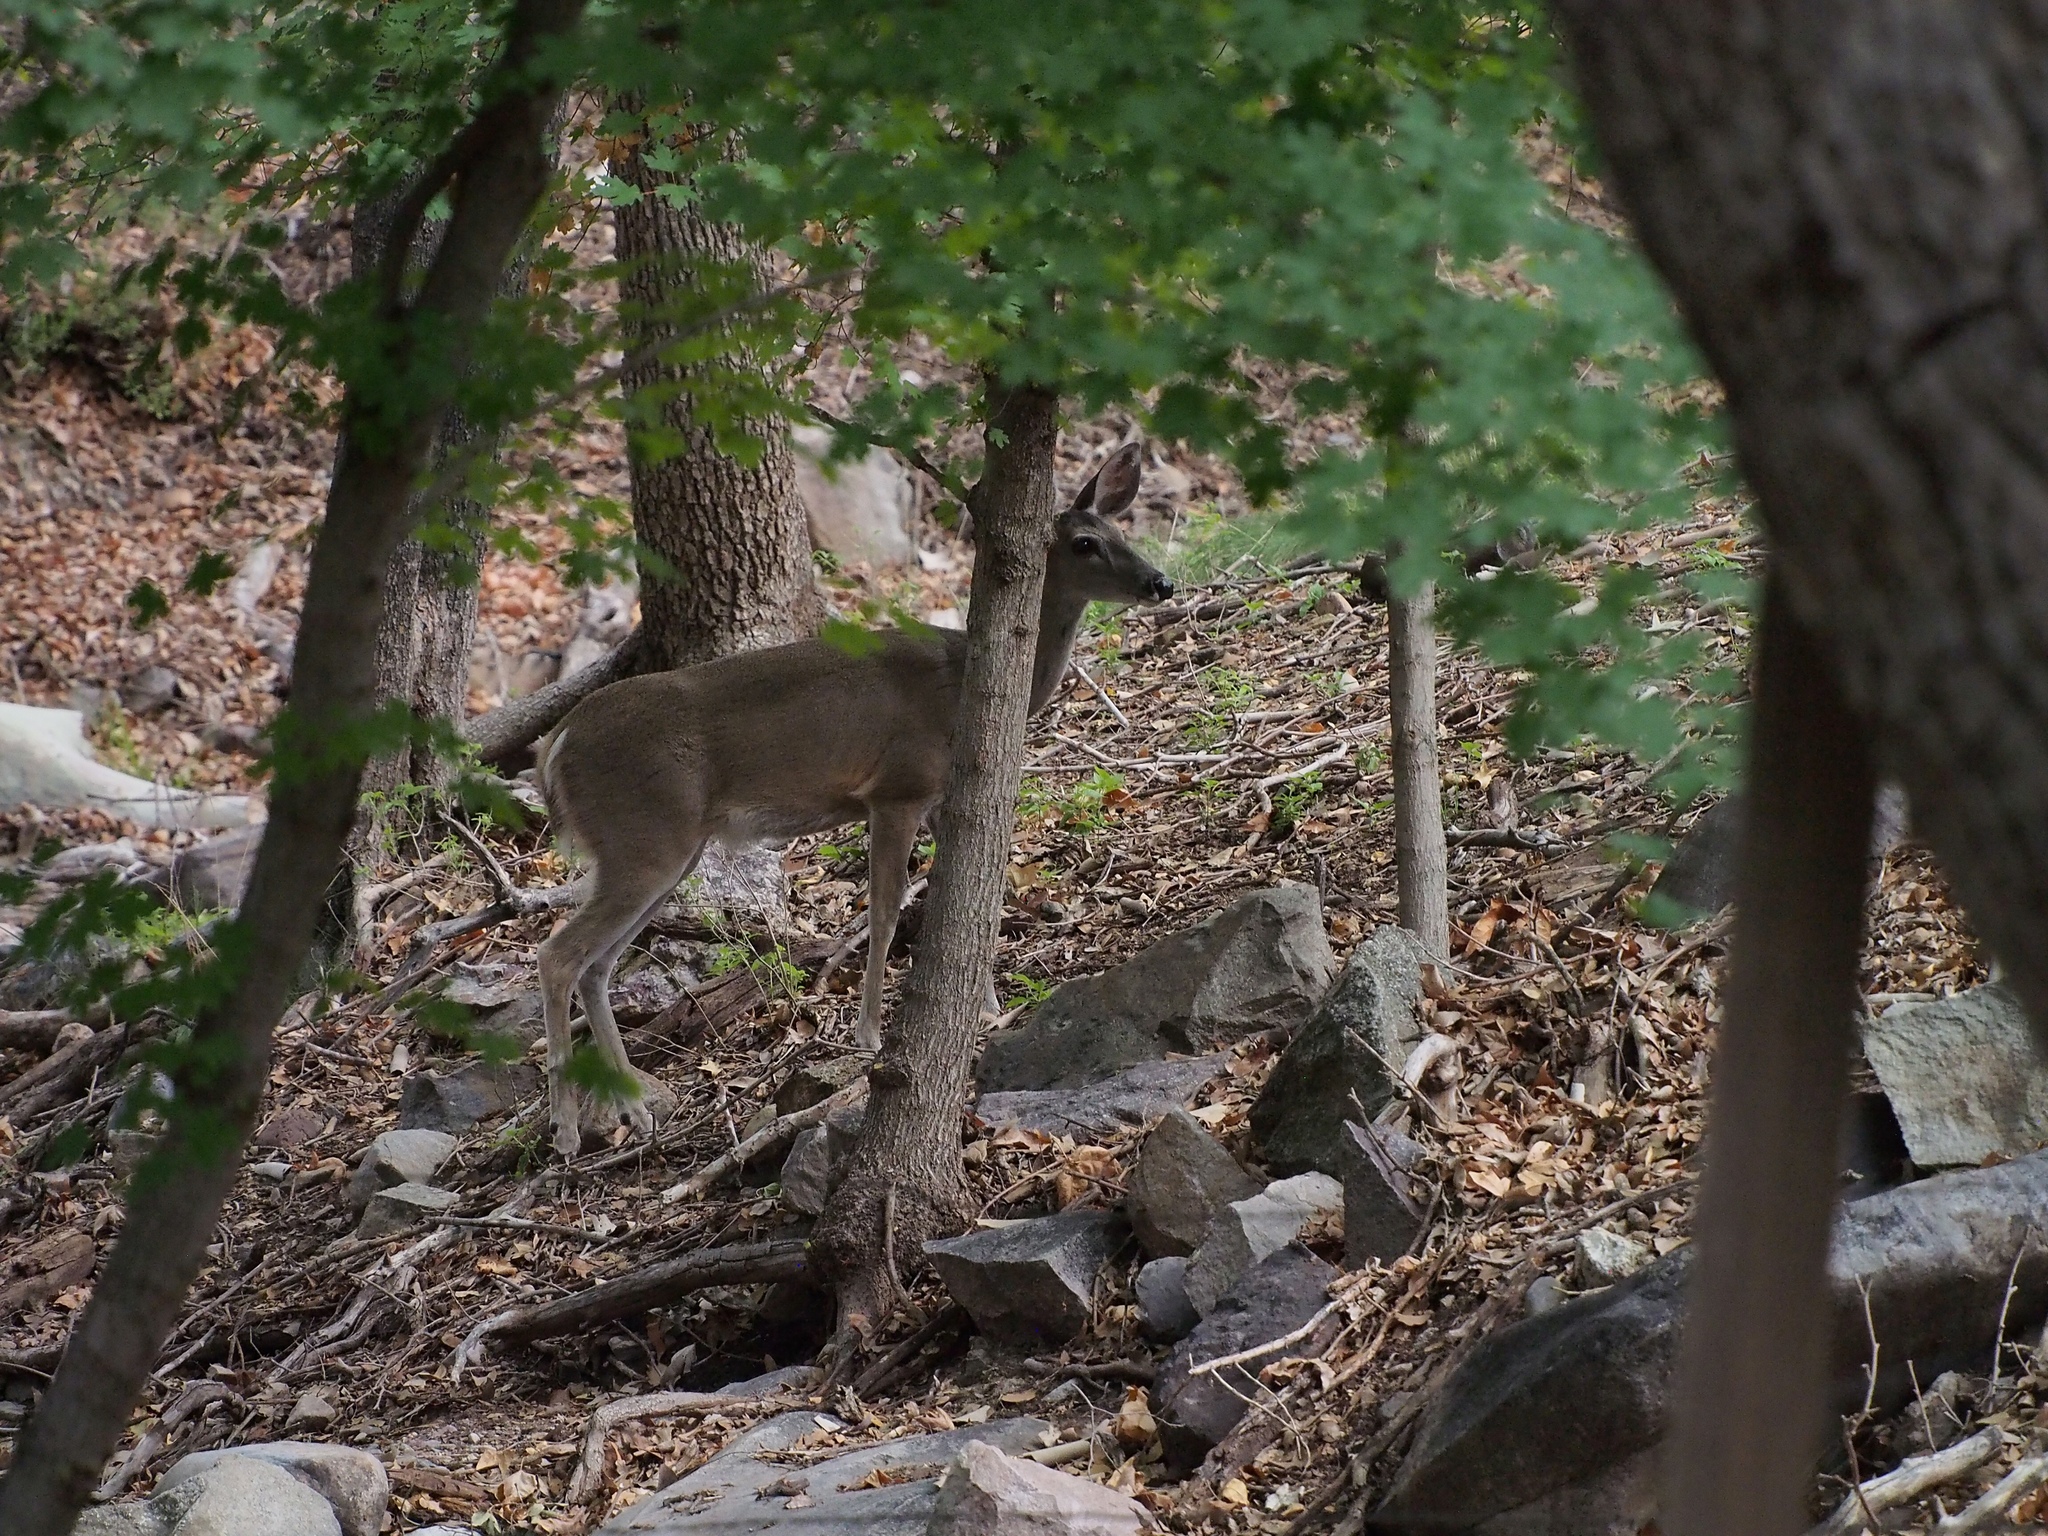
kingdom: Animalia
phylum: Chordata
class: Mammalia
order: Artiodactyla
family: Cervidae
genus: Odocoileus
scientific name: Odocoileus virginianus
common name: White-tailed deer
